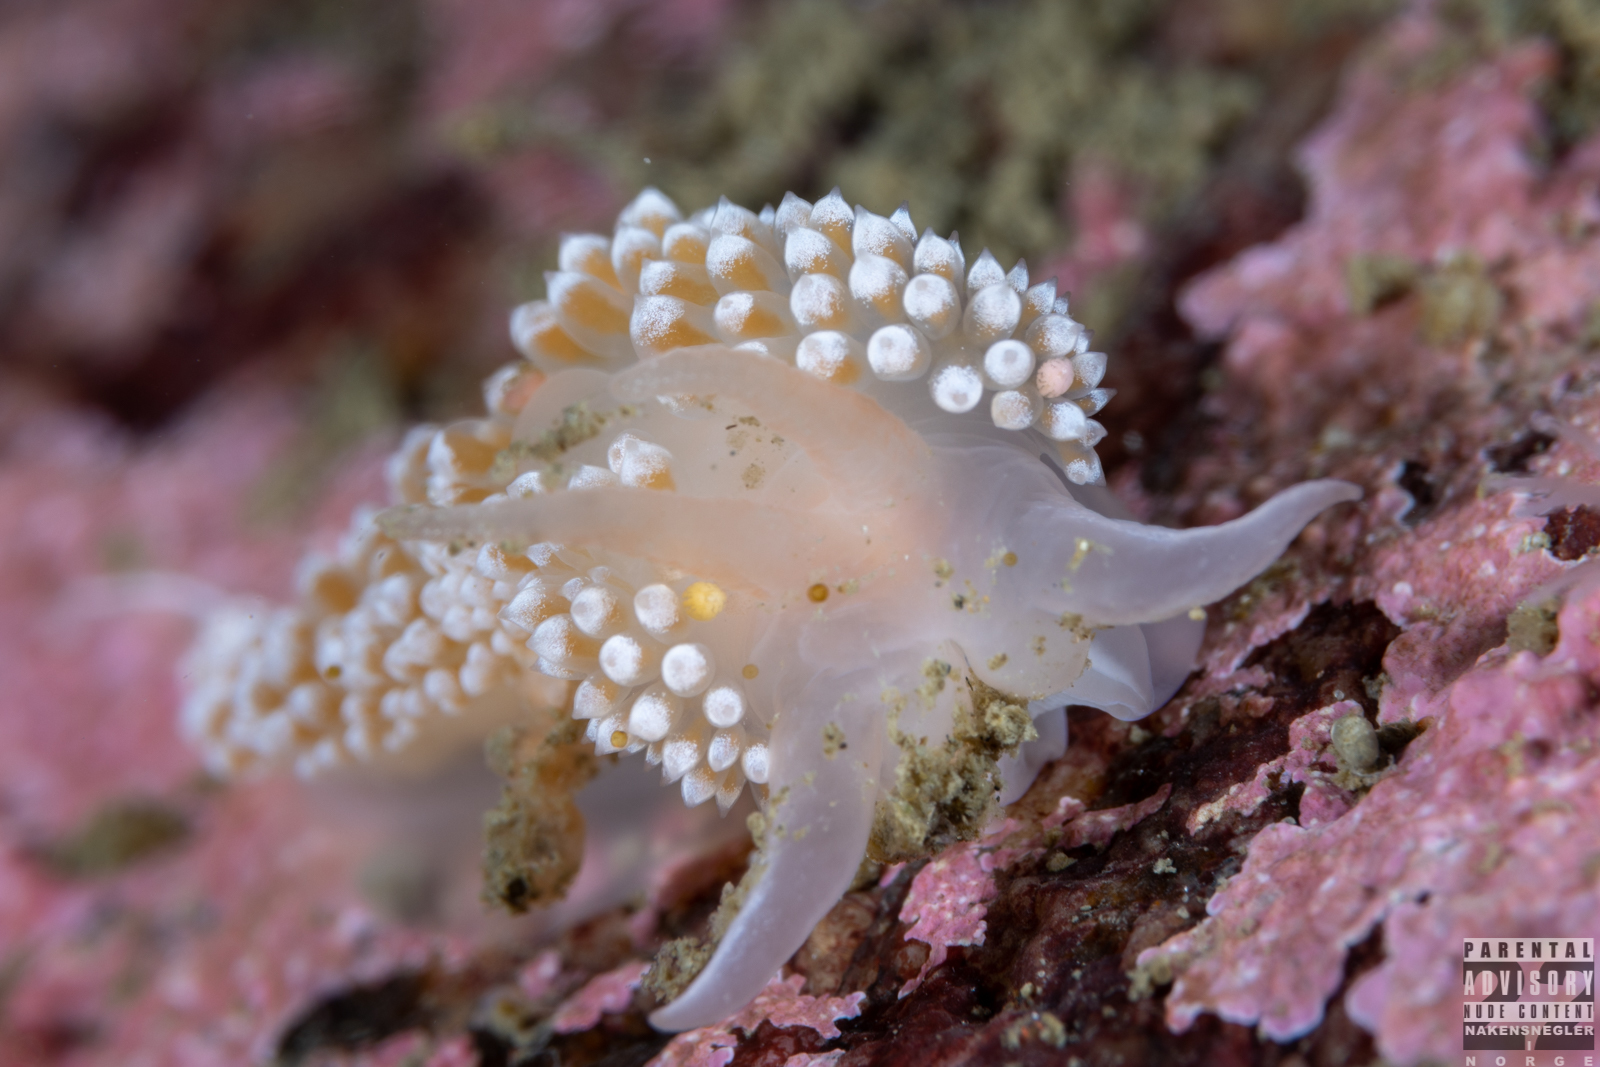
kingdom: Animalia
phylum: Mollusca
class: Gastropoda
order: Nudibranchia
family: Coryphellidae
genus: Coryphella
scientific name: Coryphella verrucosa
